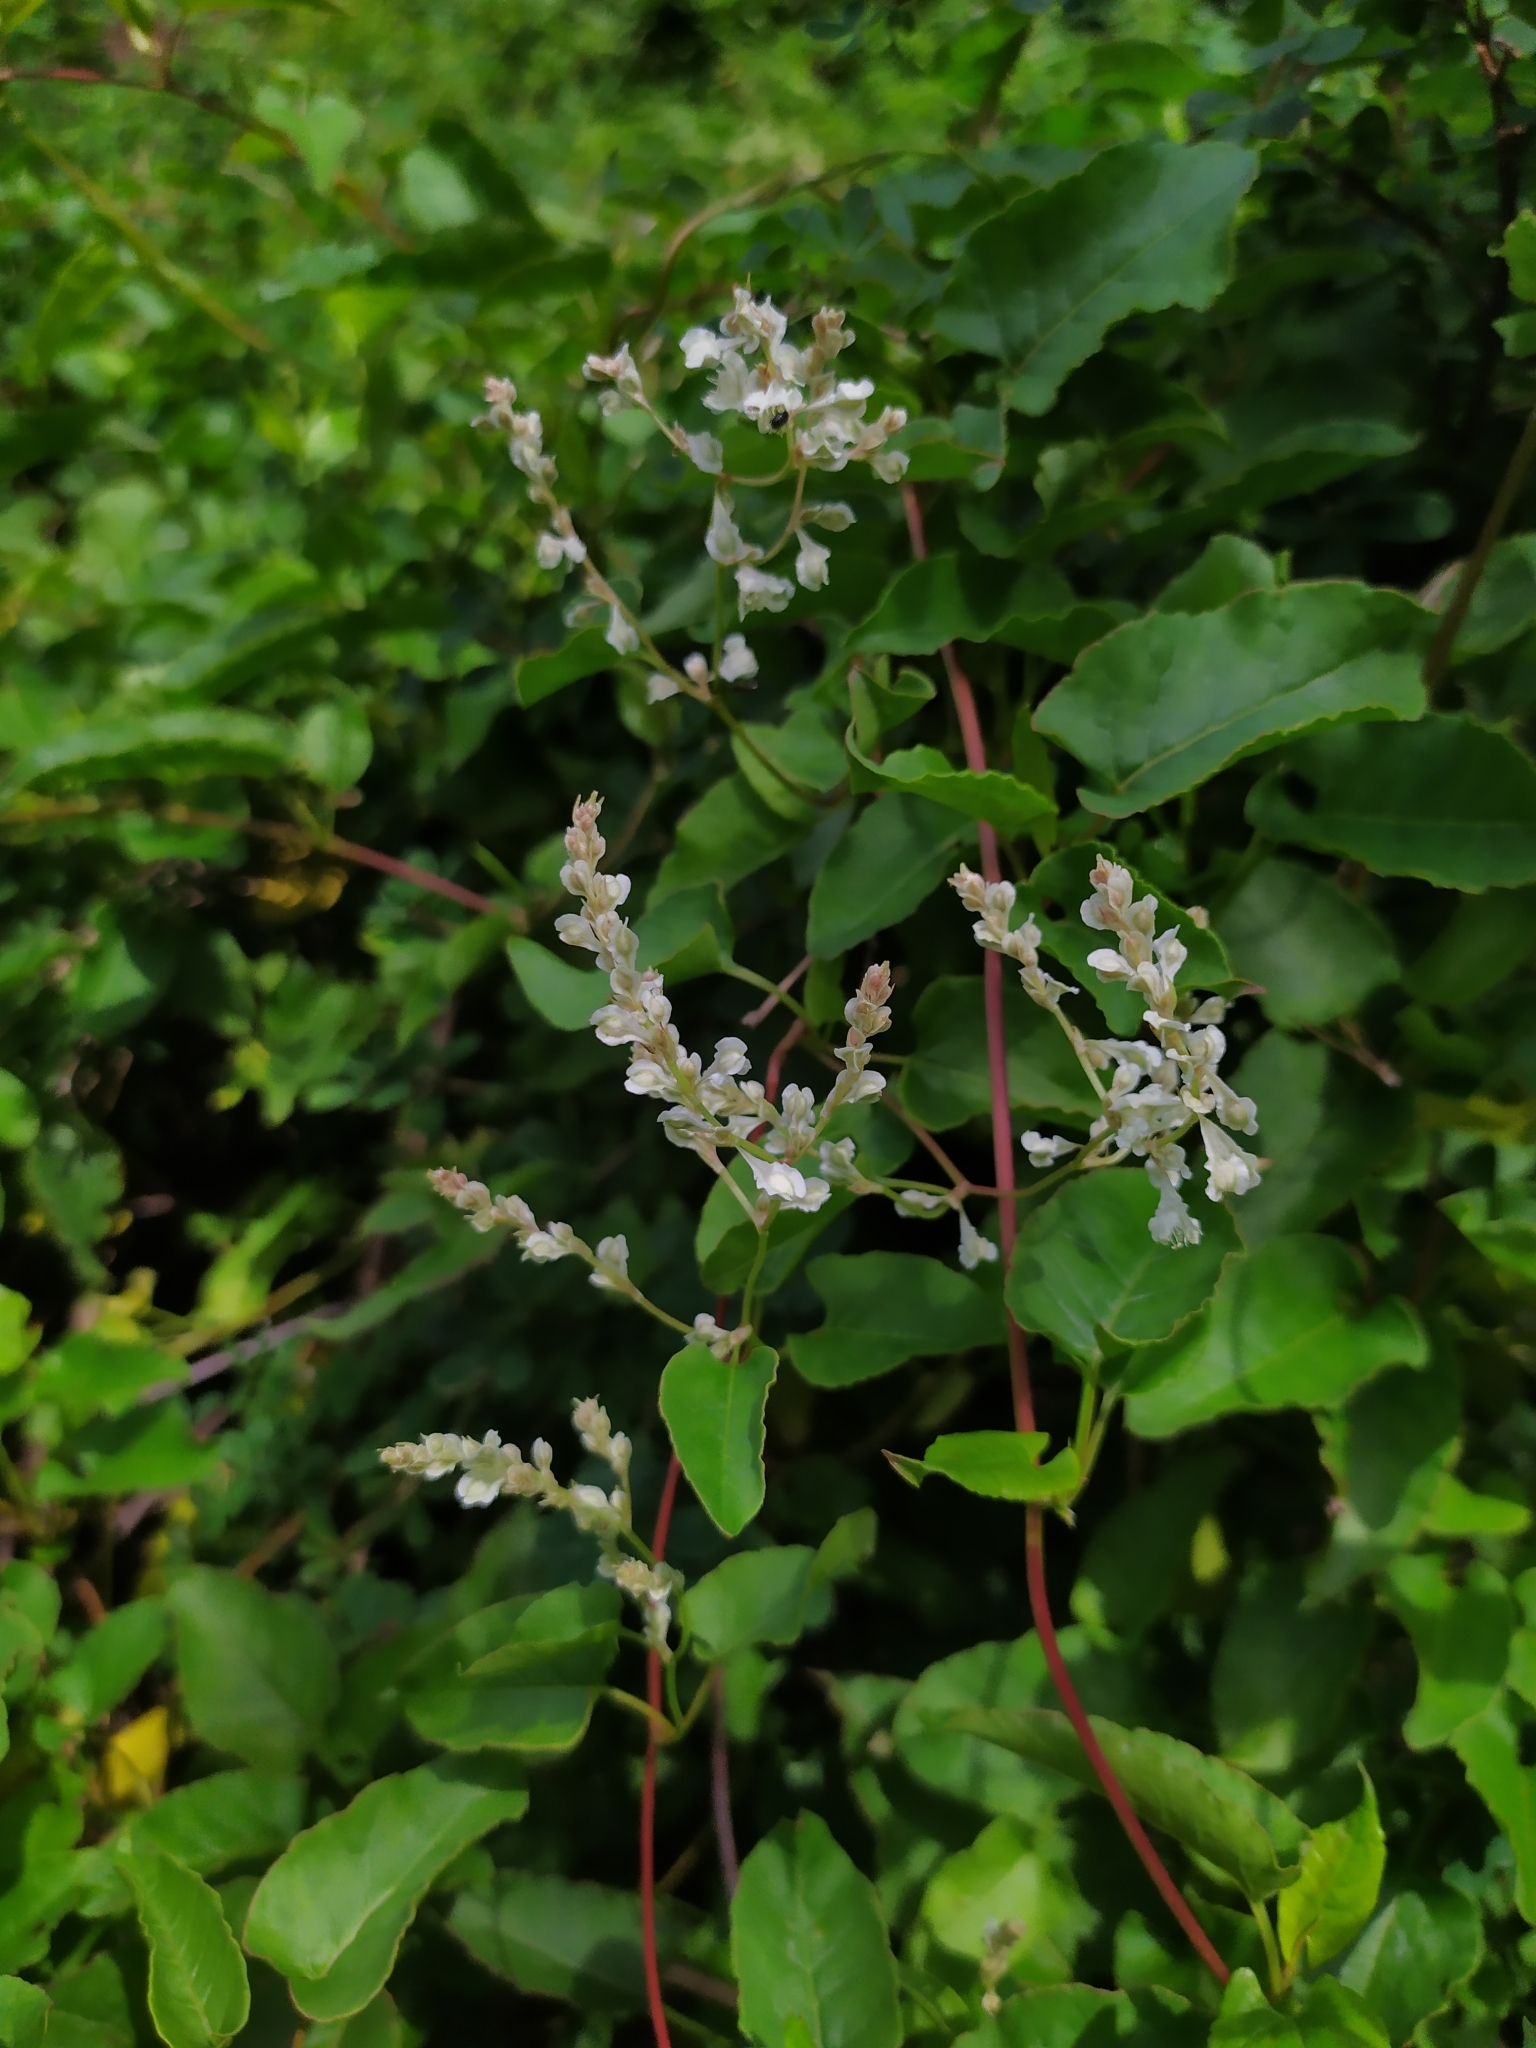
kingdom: Plantae
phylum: Tracheophyta
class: Magnoliopsida
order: Caryophyllales
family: Polygonaceae
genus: Fallopia
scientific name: Fallopia baldschuanica
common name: Russian-vine
